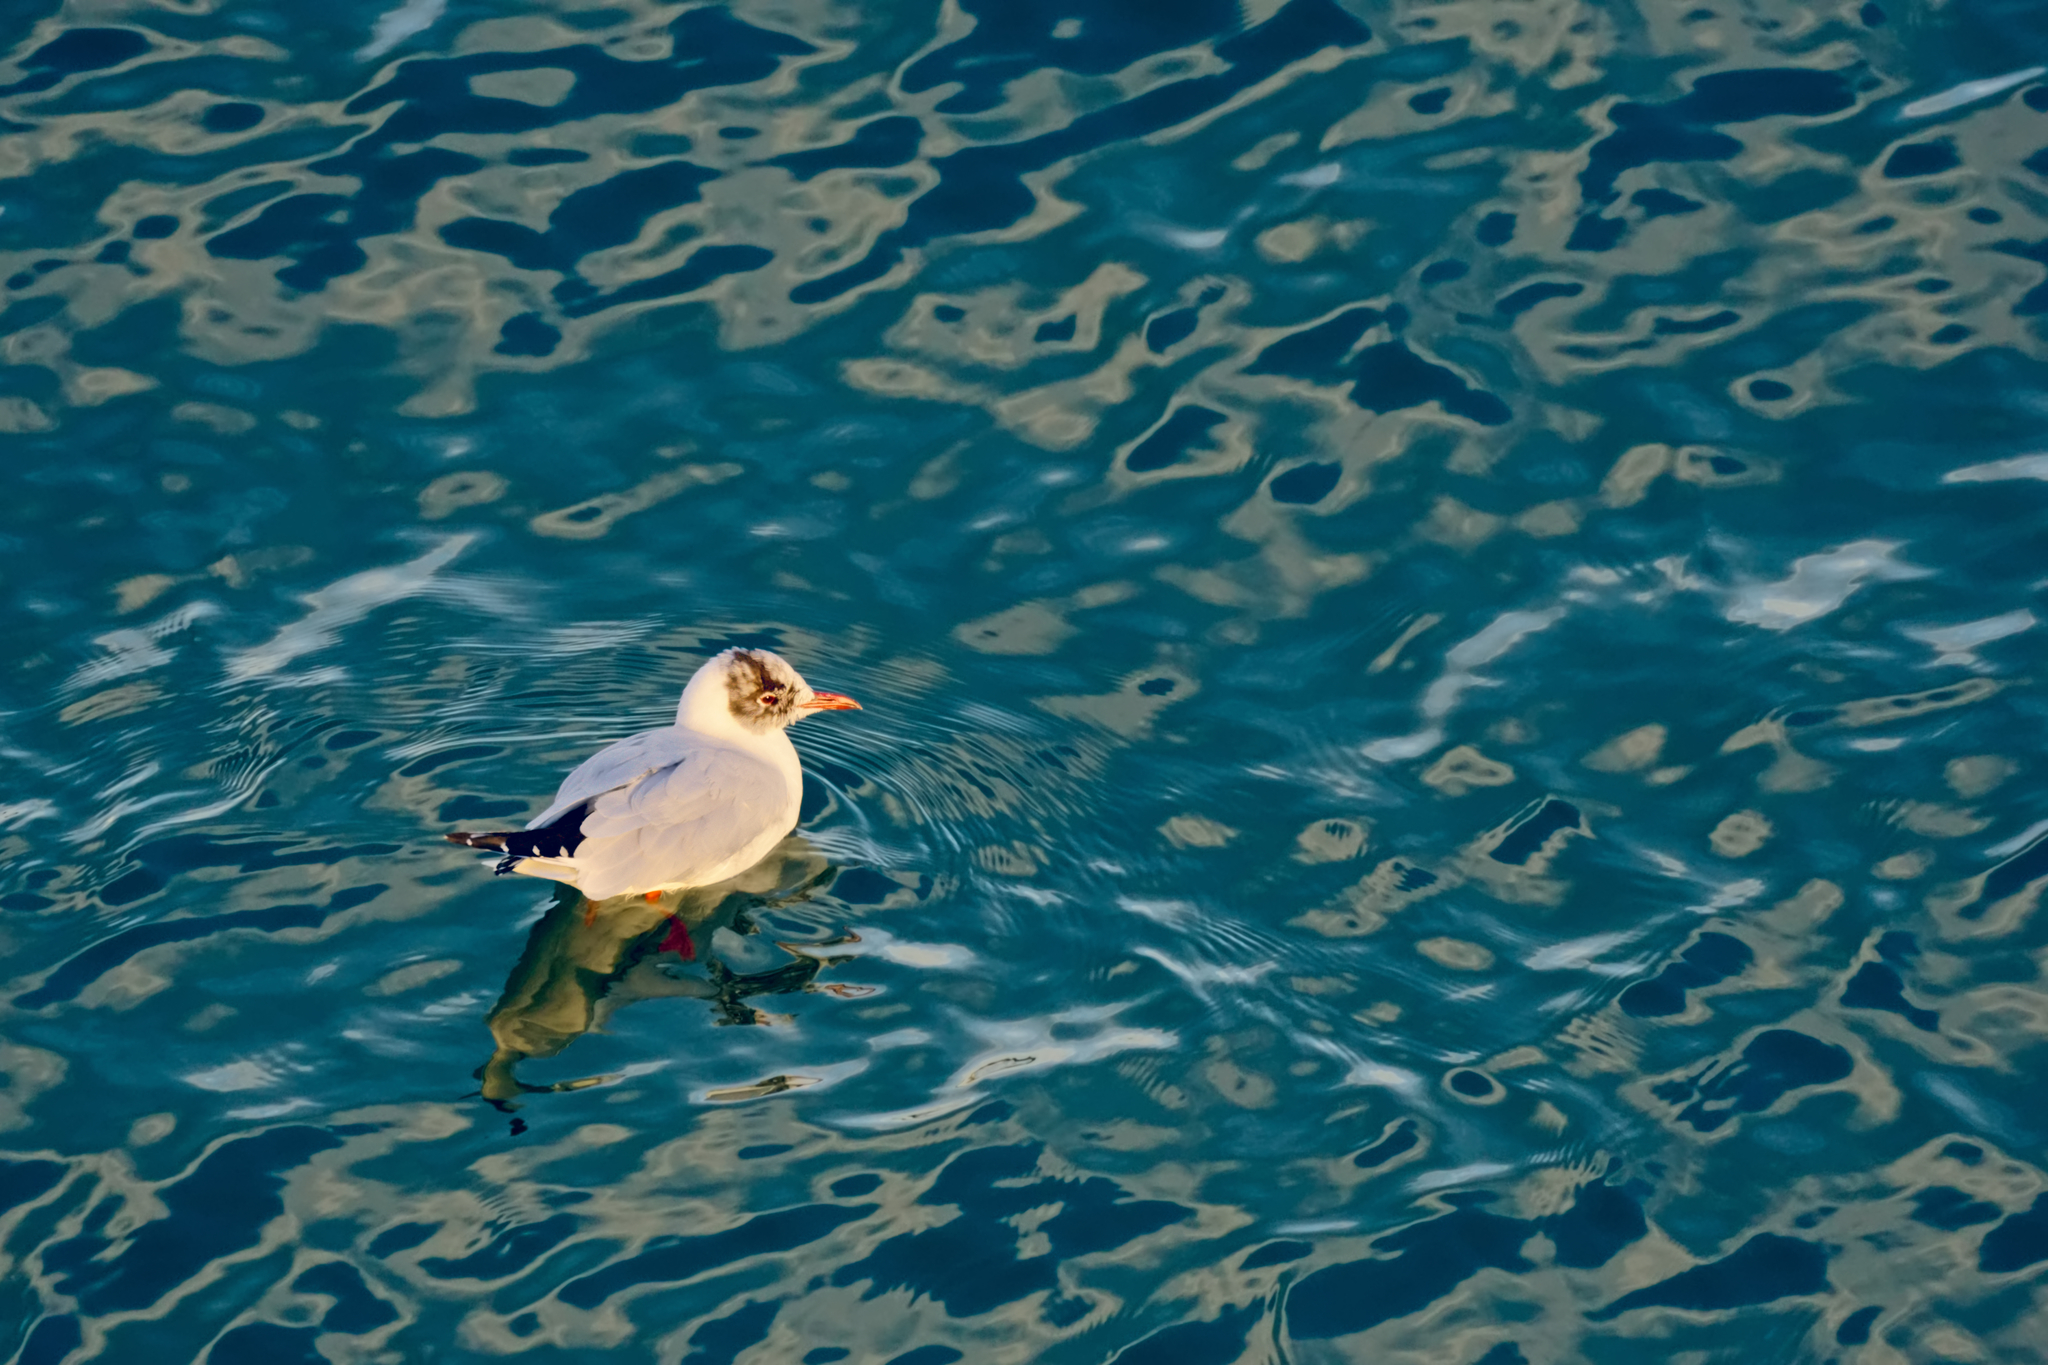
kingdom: Animalia
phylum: Chordata
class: Aves
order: Charadriiformes
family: Laridae
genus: Chroicocephalus
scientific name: Chroicocephalus ridibundus
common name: Black-headed gull
